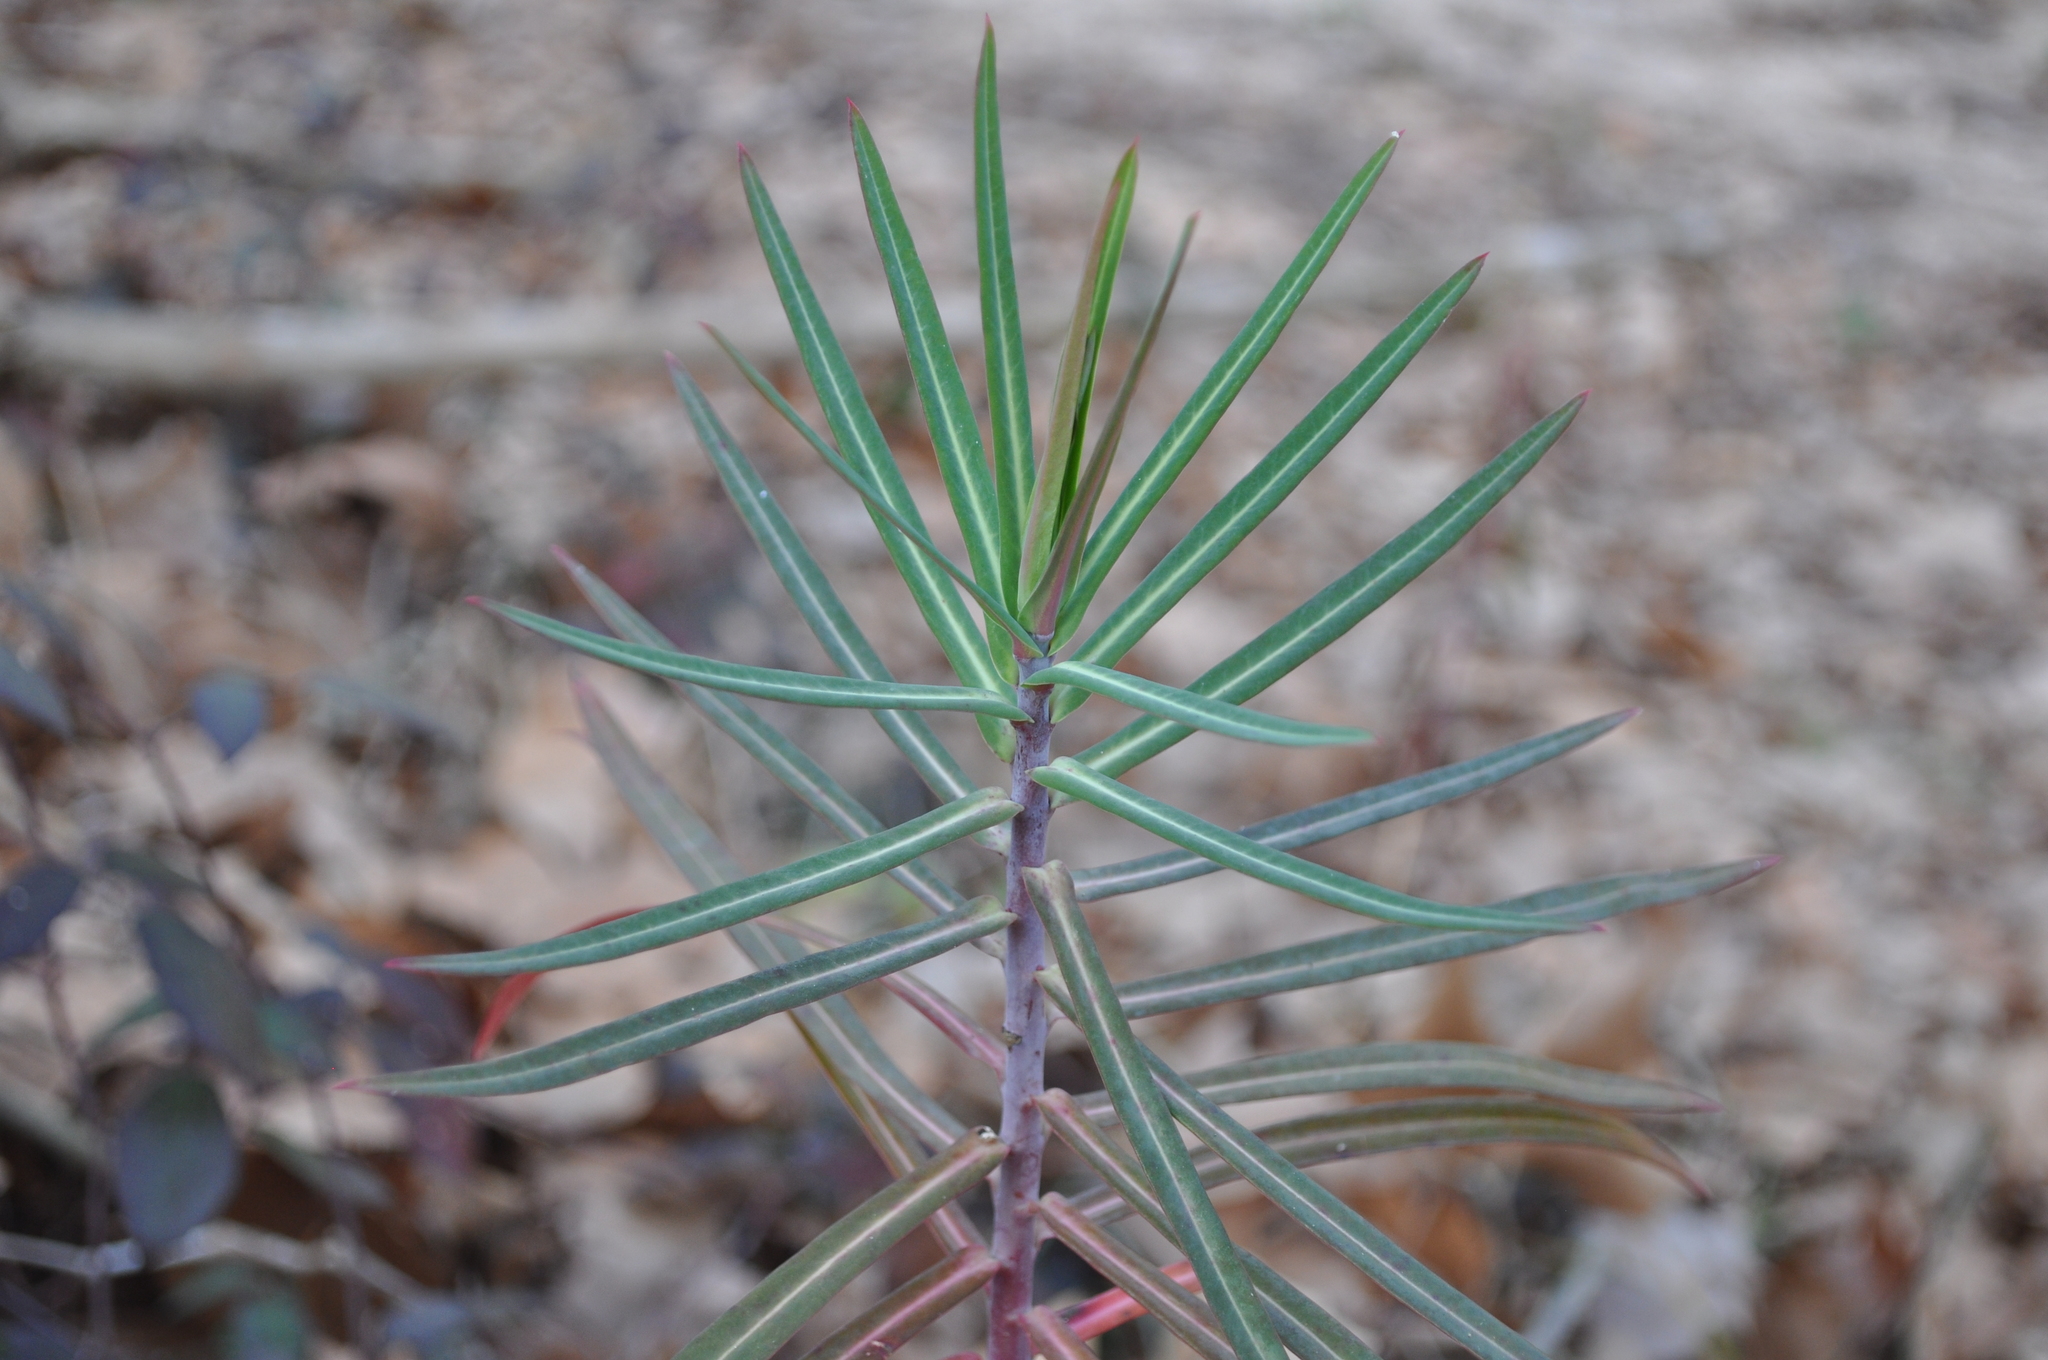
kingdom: Plantae
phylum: Tracheophyta
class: Magnoliopsida
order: Malpighiales
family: Euphorbiaceae
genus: Euphorbia
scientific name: Euphorbia lathyris
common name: Caper spurge
